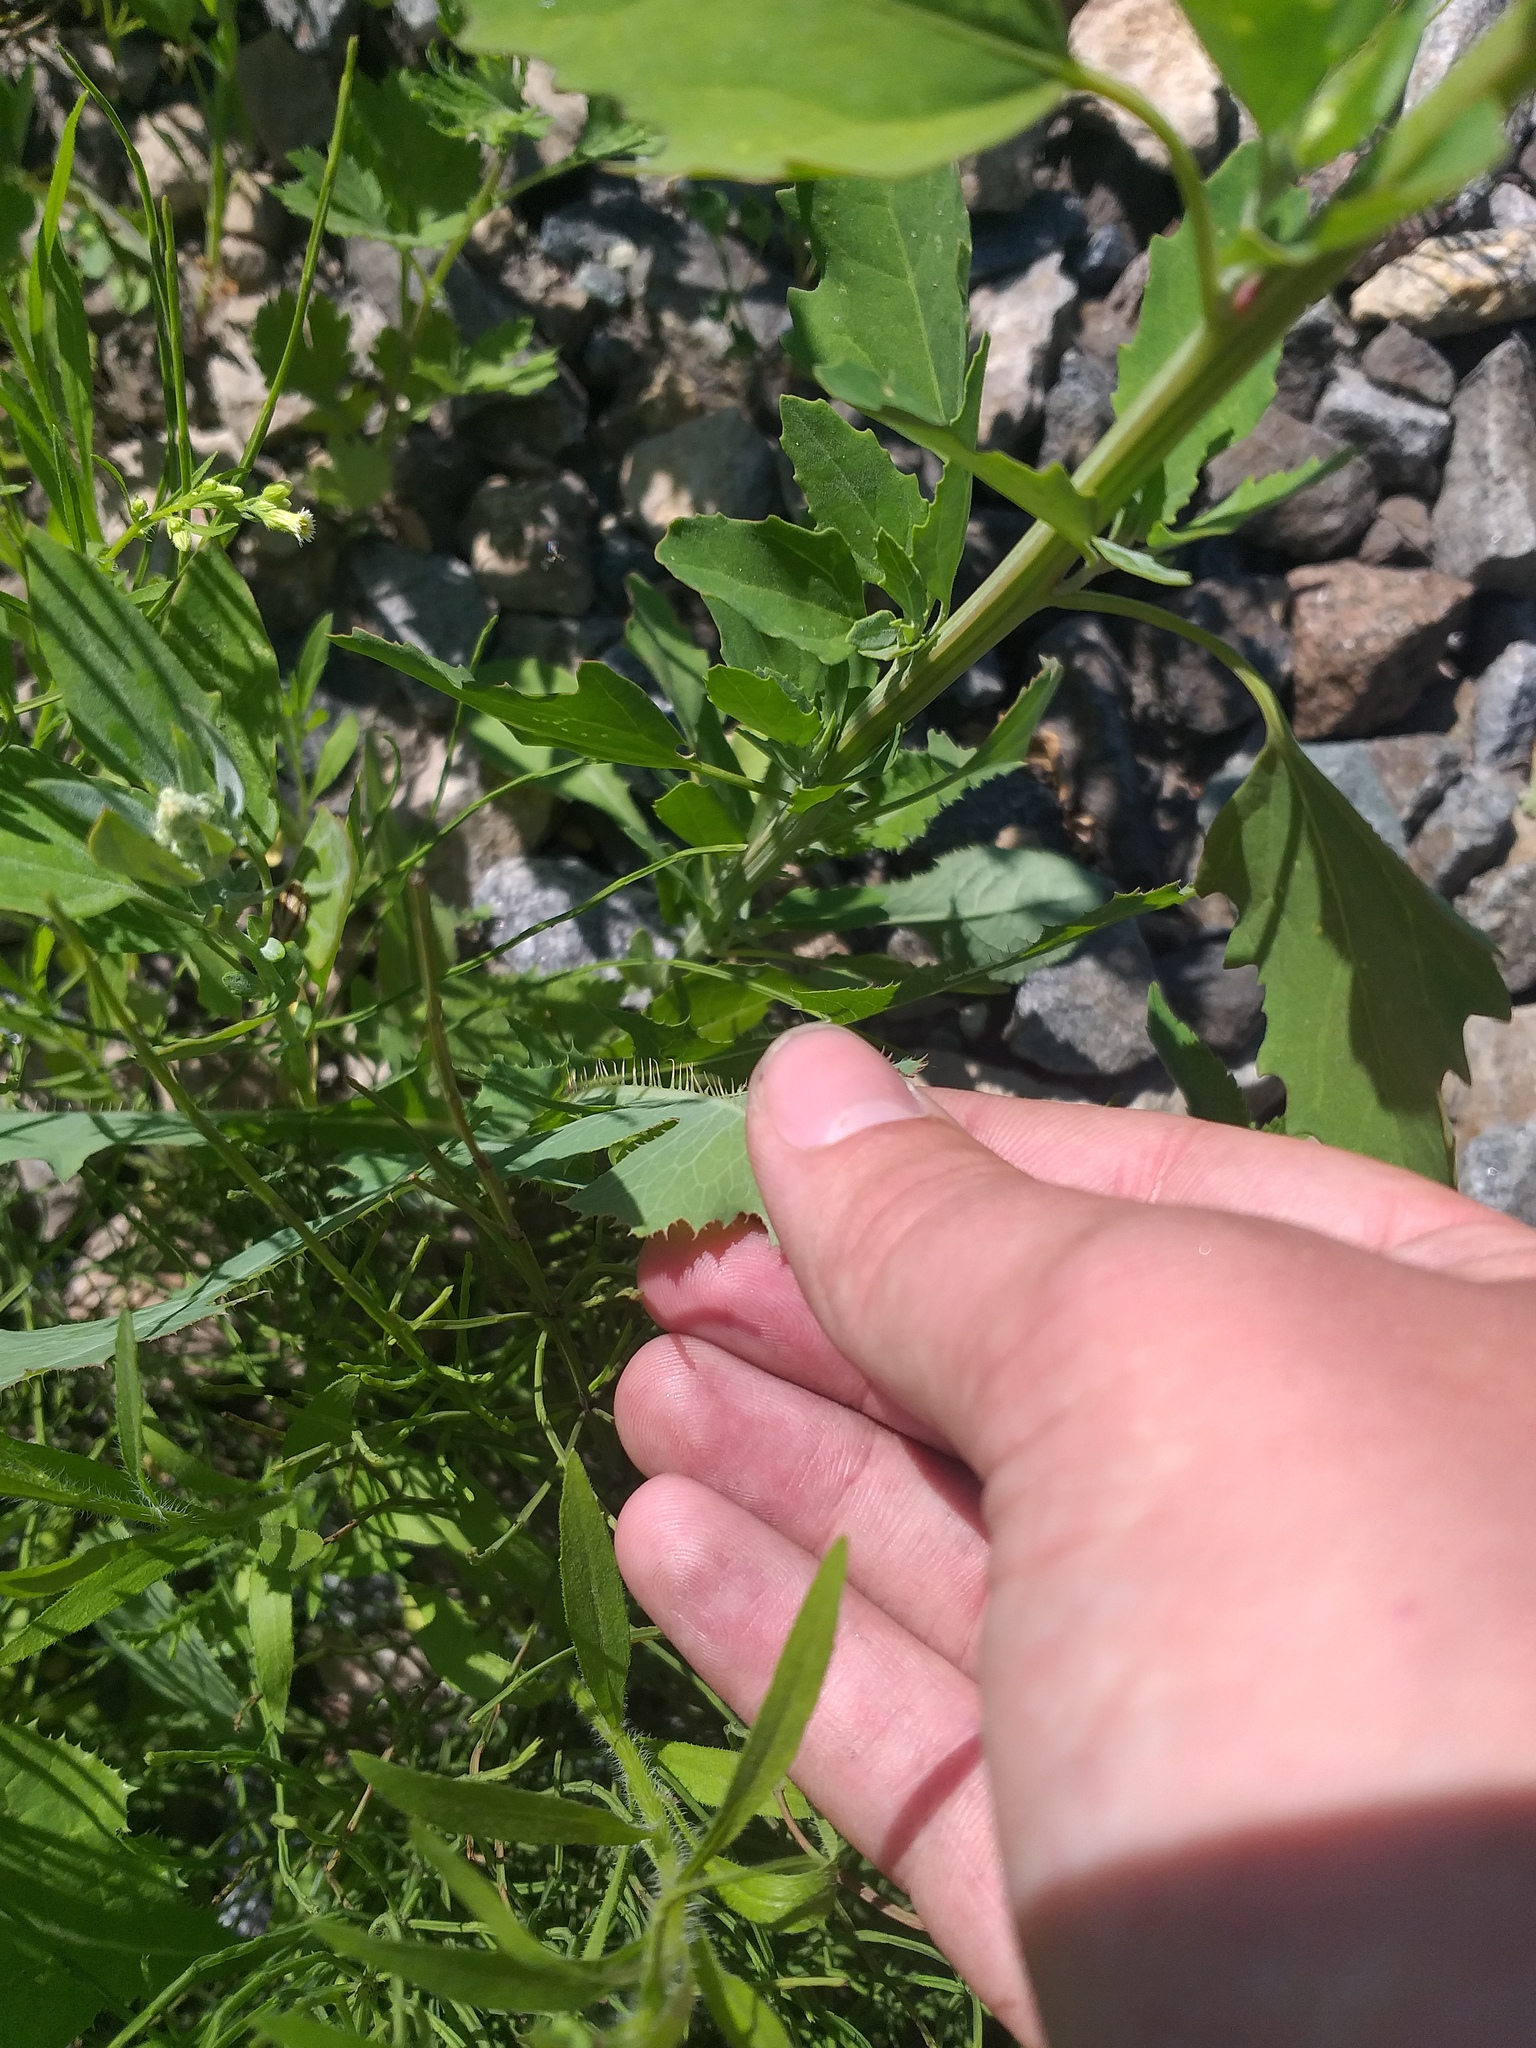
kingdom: Plantae
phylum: Tracheophyta
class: Magnoliopsida
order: Asterales
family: Asteraceae
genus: Lactuca
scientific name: Lactuca serriola
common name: Prickly lettuce
